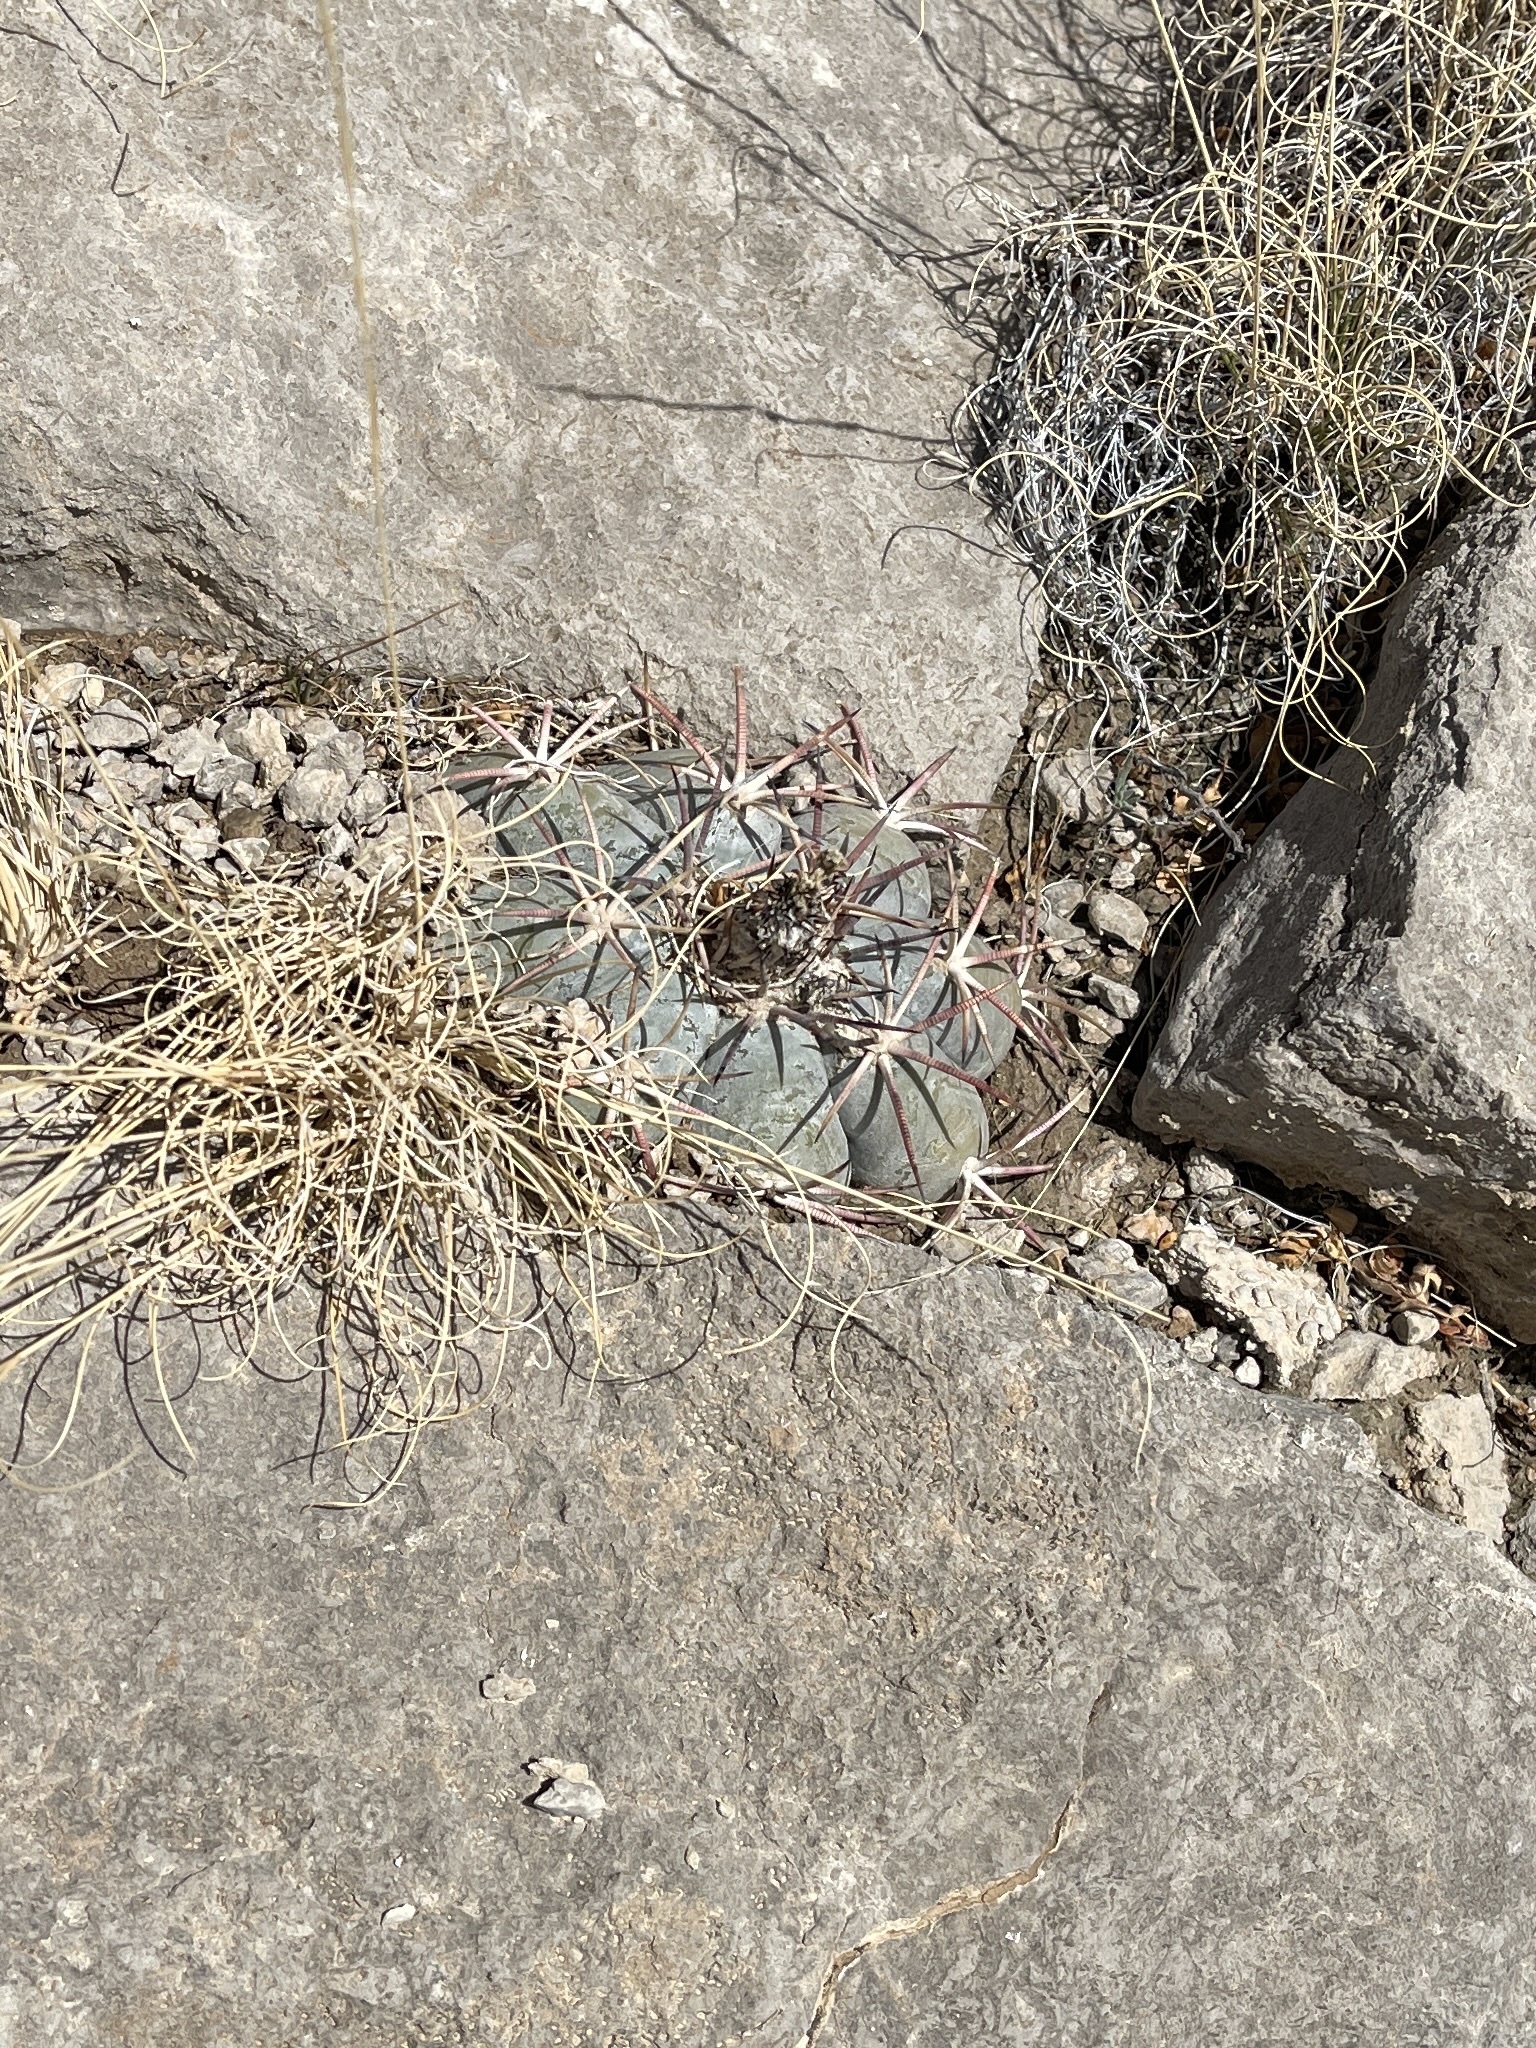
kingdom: Plantae
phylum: Tracheophyta
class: Magnoliopsida
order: Caryophyllales
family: Cactaceae
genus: Echinocactus
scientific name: Echinocactus horizonthalonius
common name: Devilshead
